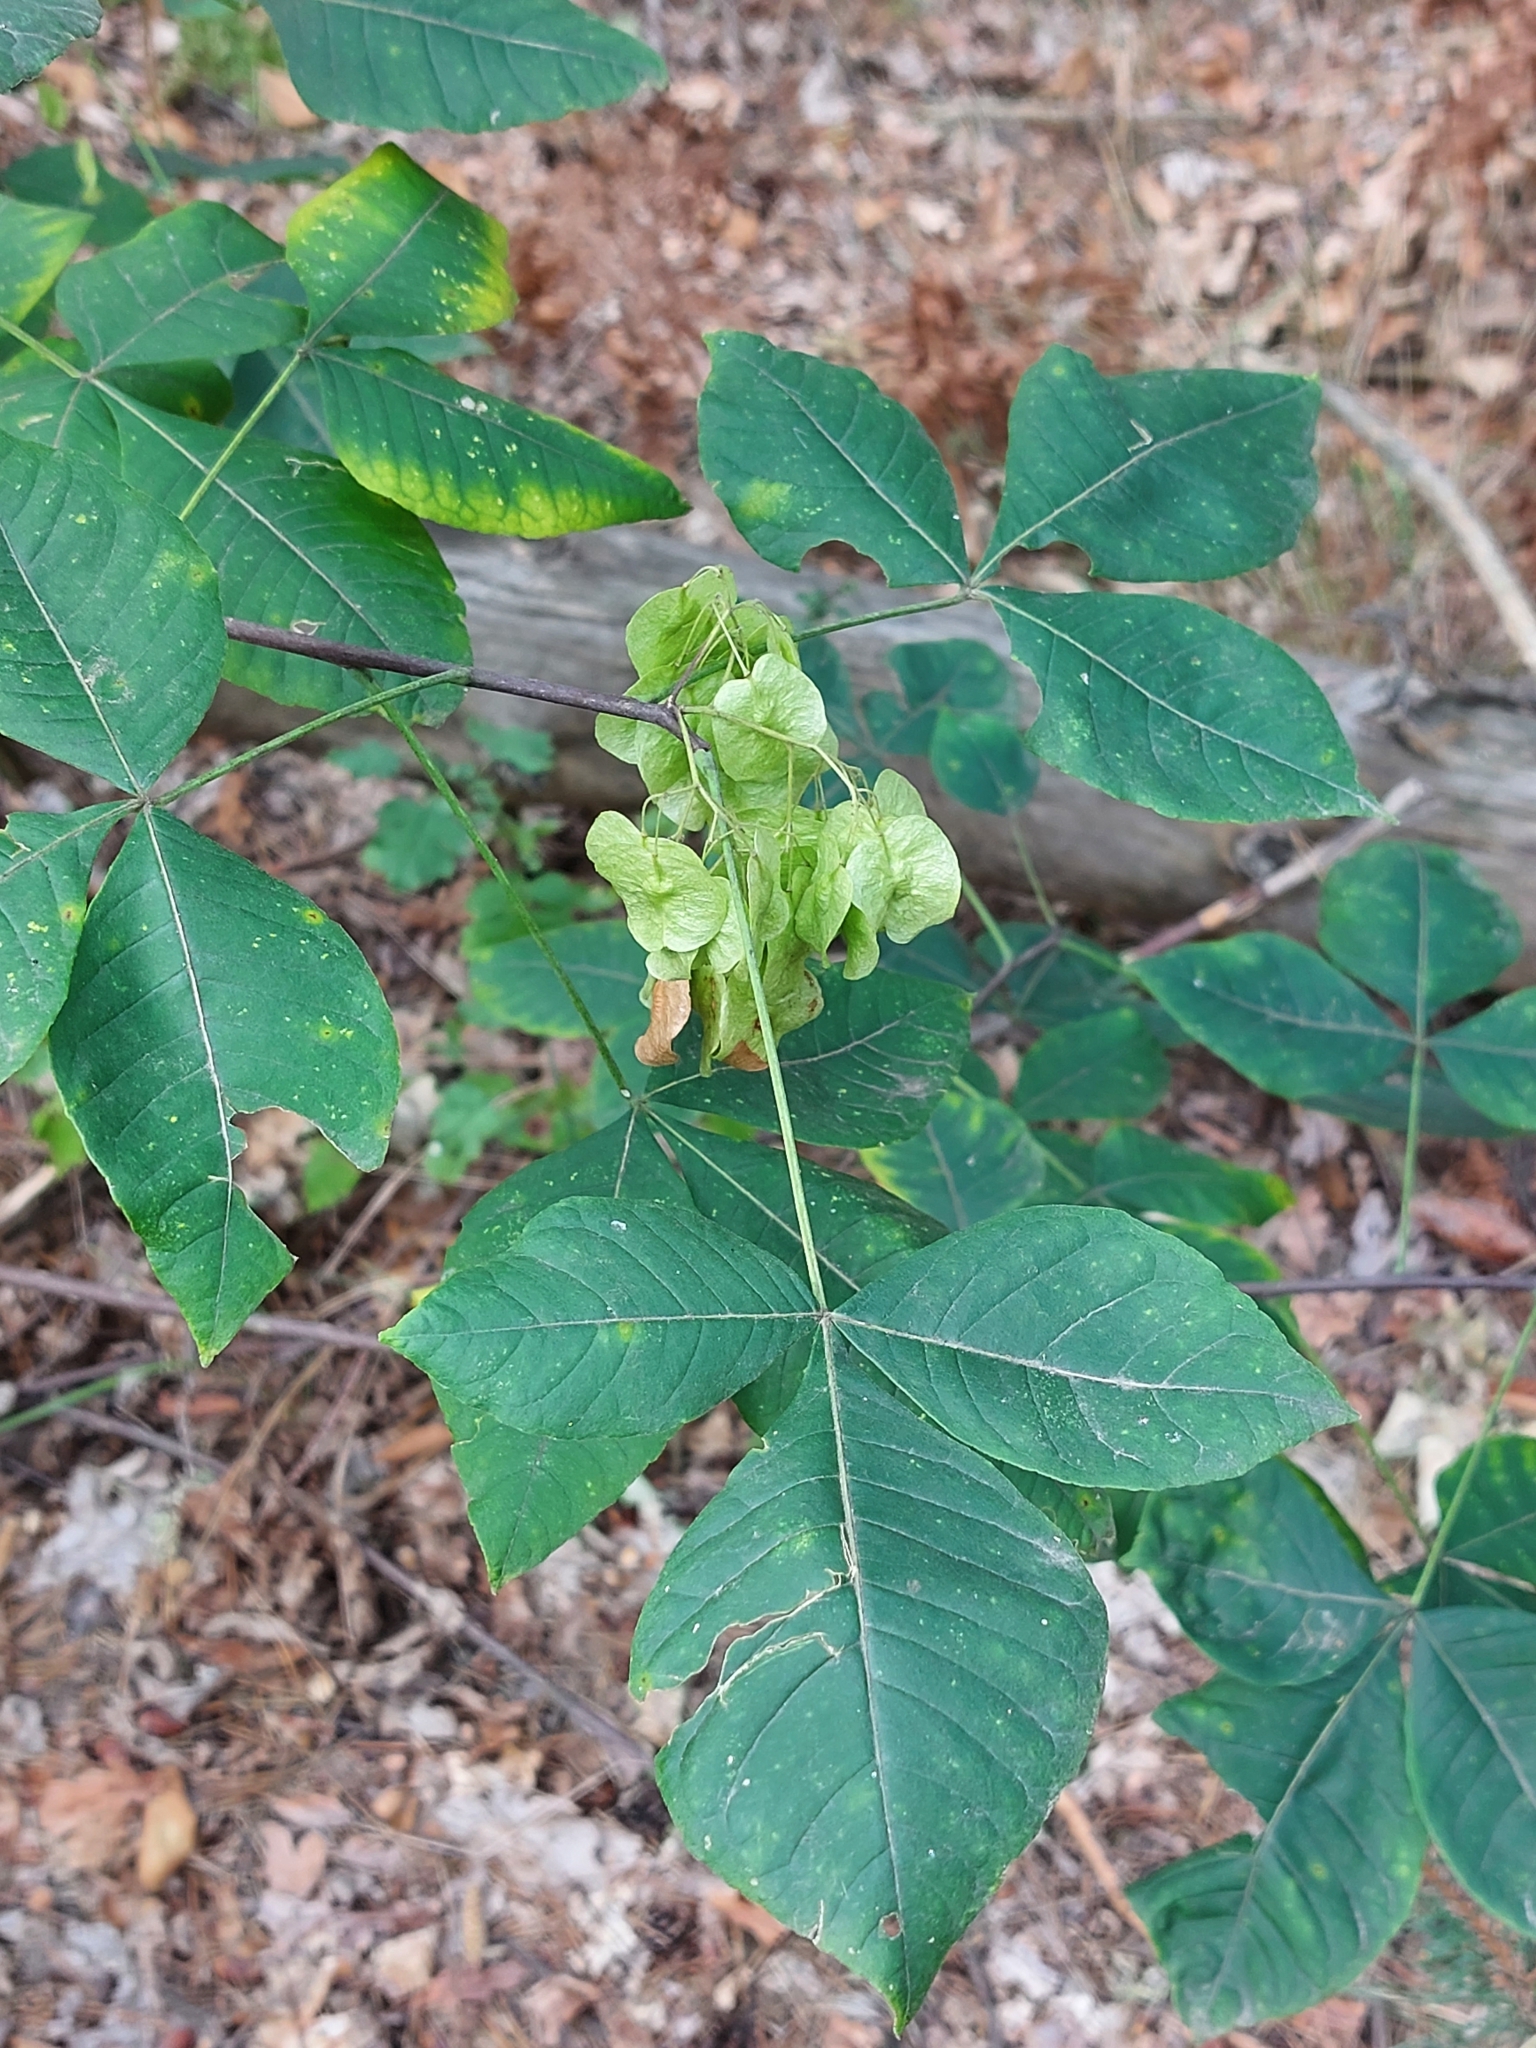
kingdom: Plantae
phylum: Tracheophyta
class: Magnoliopsida
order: Sapindales
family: Rutaceae
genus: Ptelea
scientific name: Ptelea trifoliata
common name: Common hop-tree
